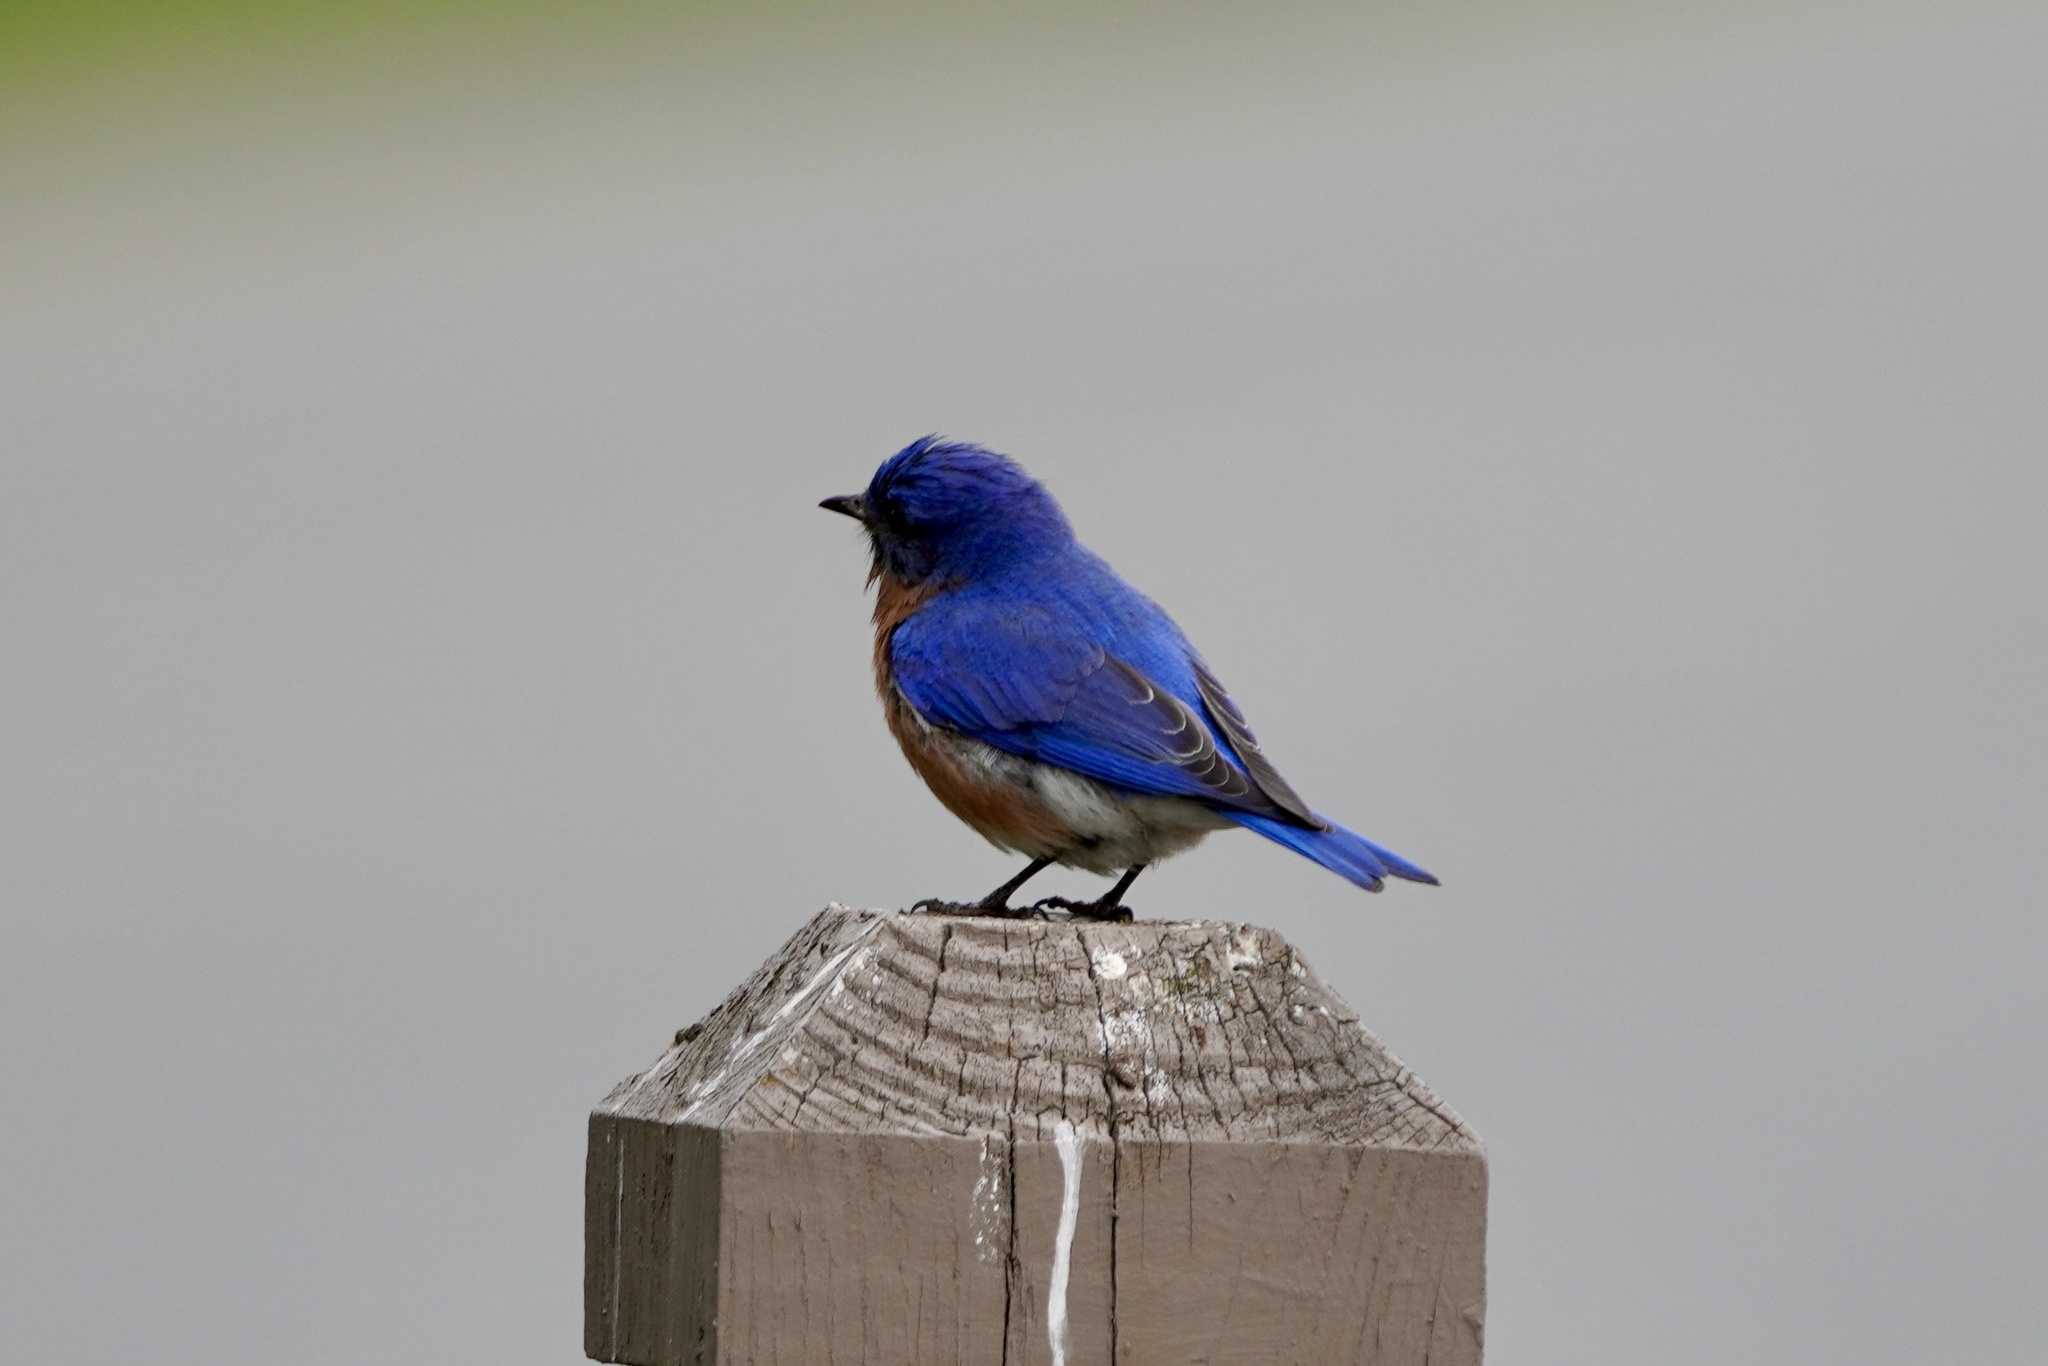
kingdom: Animalia
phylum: Chordata
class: Aves
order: Passeriformes
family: Turdidae
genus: Sialia
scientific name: Sialia sialis
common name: Eastern bluebird
